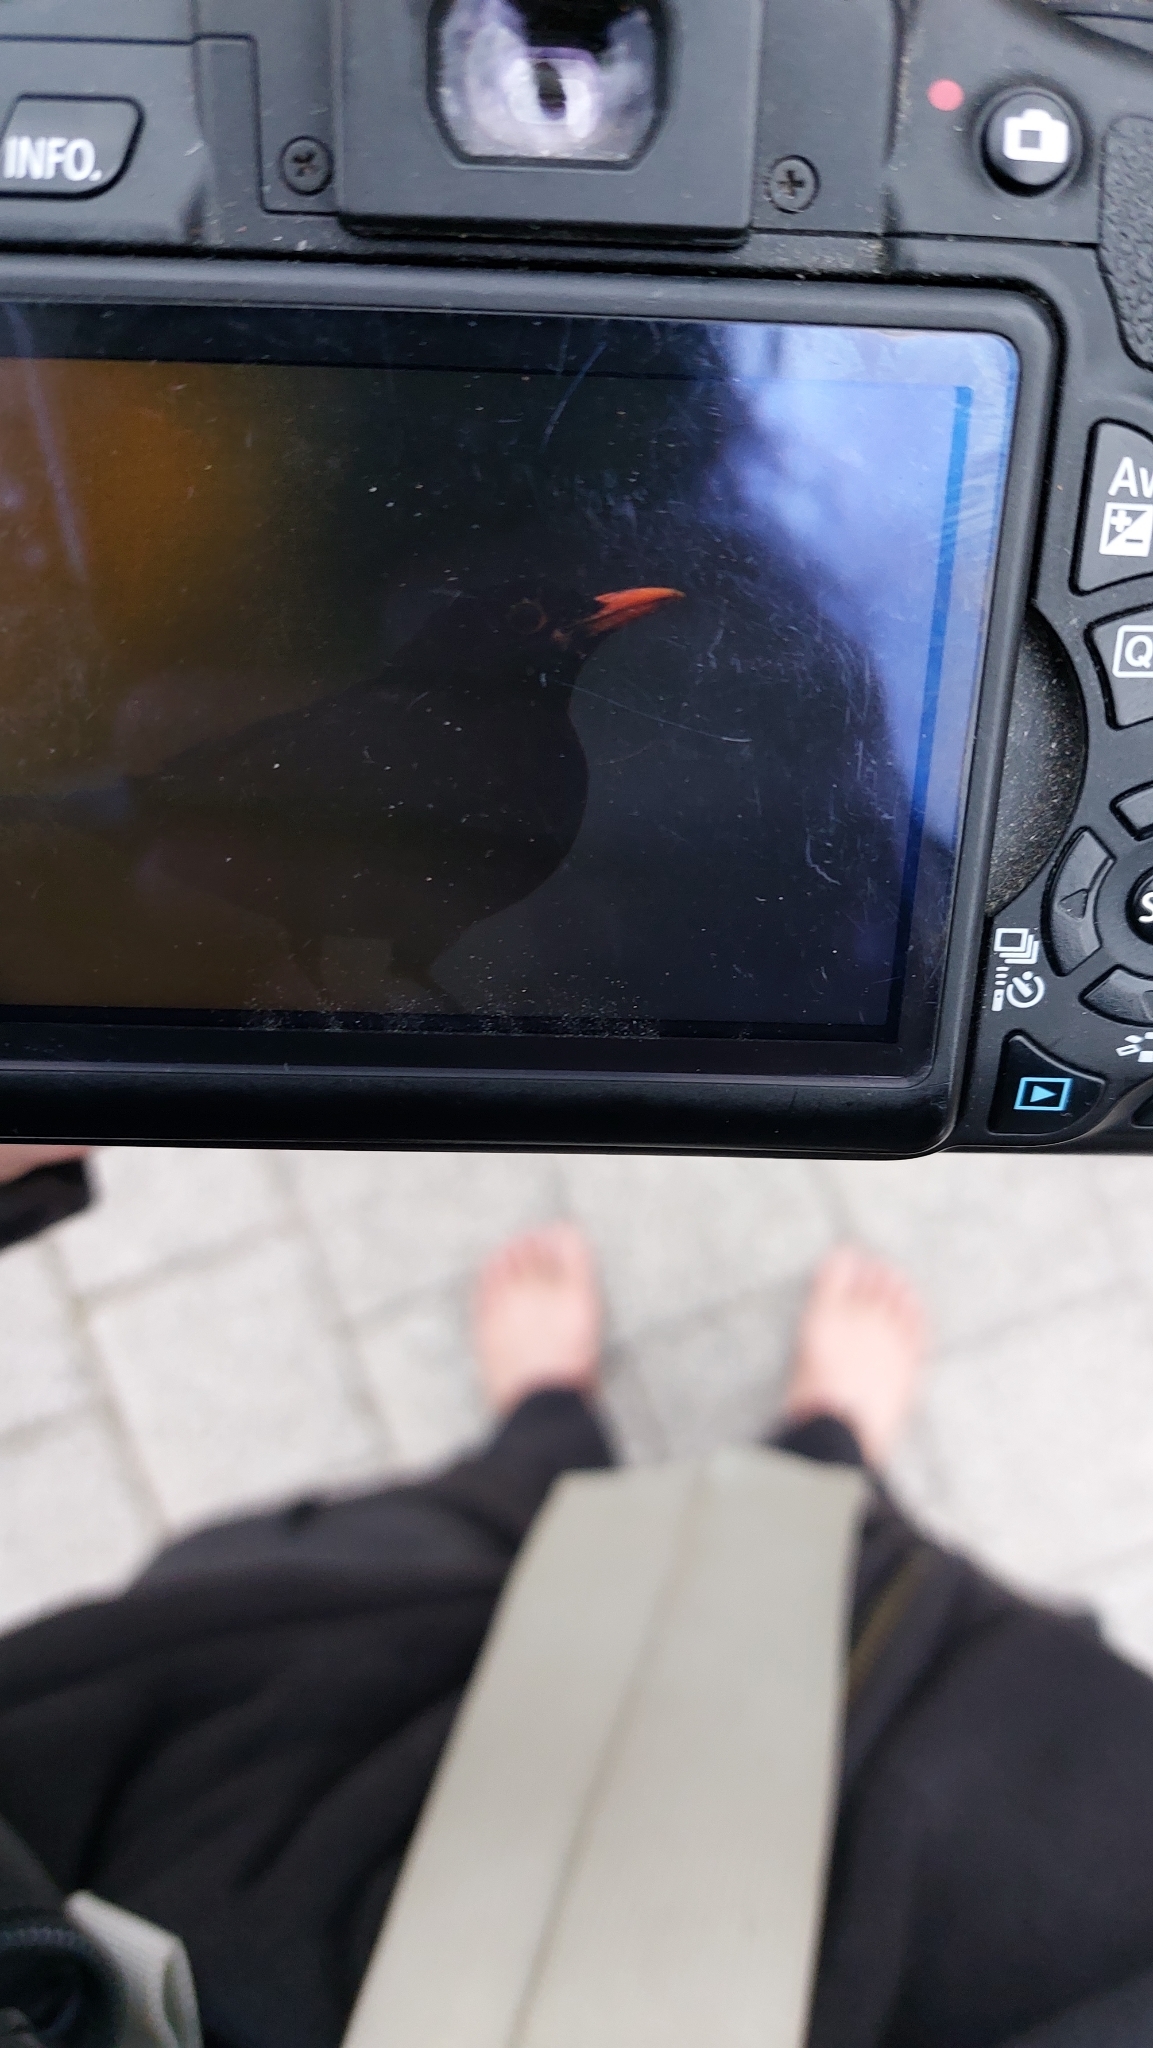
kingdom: Animalia
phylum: Chordata
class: Aves
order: Passeriformes
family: Turdidae
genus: Turdus
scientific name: Turdus merula
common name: Common blackbird
